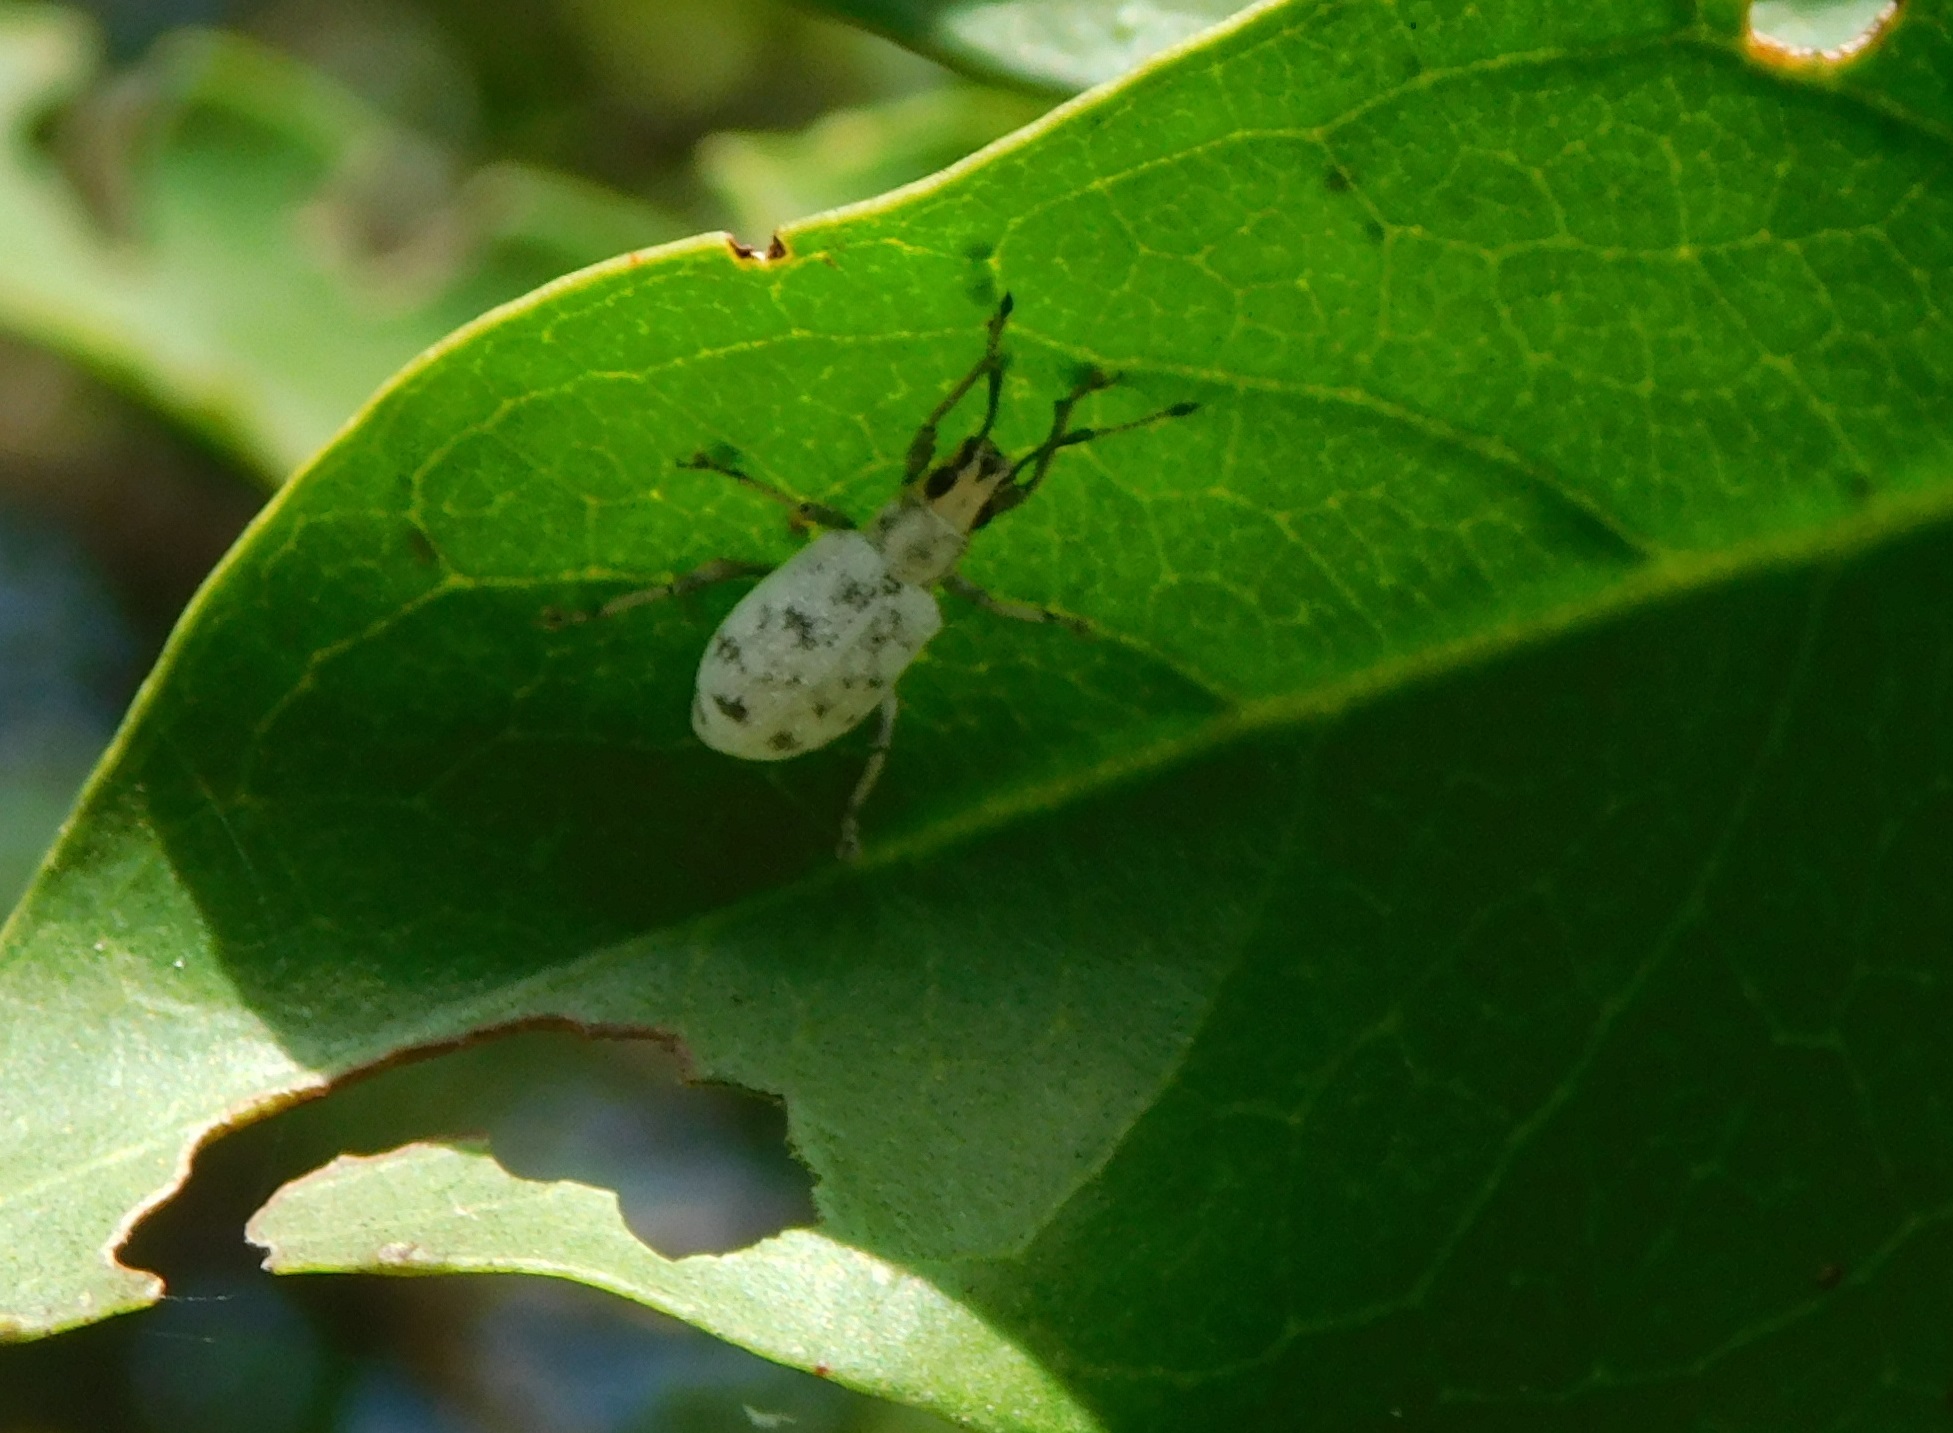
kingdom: Animalia
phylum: Arthropoda
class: Insecta
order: Coleoptera
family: Curculionidae
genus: Myllocerus
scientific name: Myllocerus undecimpustulatus
